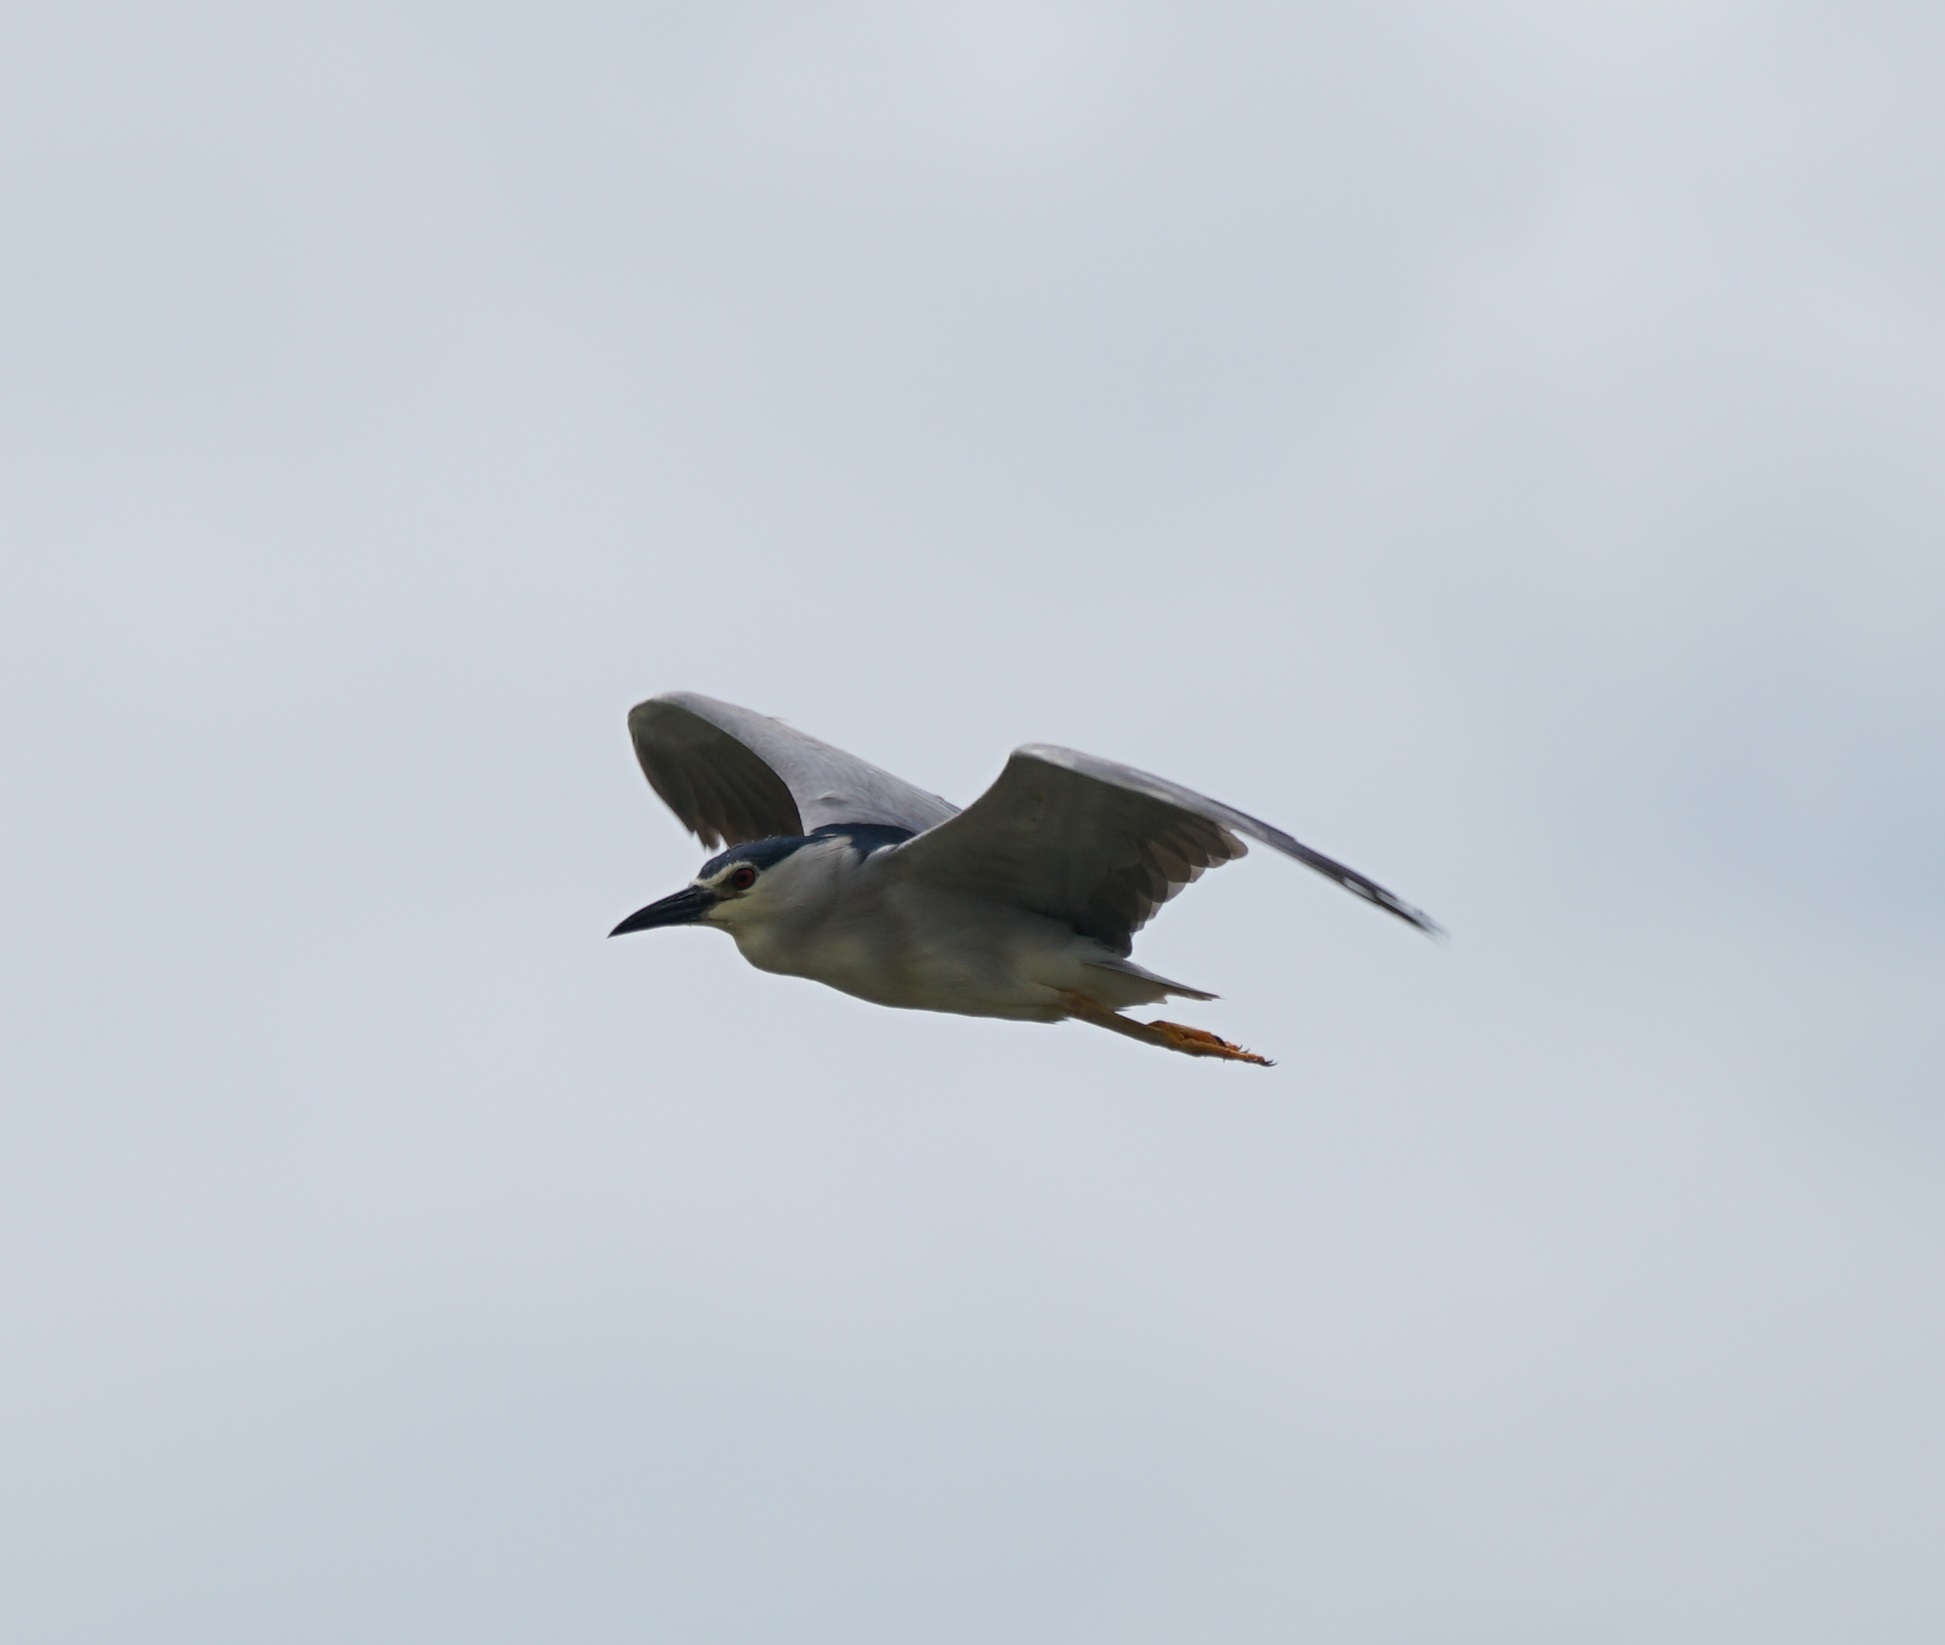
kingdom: Animalia
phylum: Chordata
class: Aves
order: Pelecaniformes
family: Ardeidae
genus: Nycticorax
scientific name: Nycticorax nycticorax
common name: Black-crowned night heron
